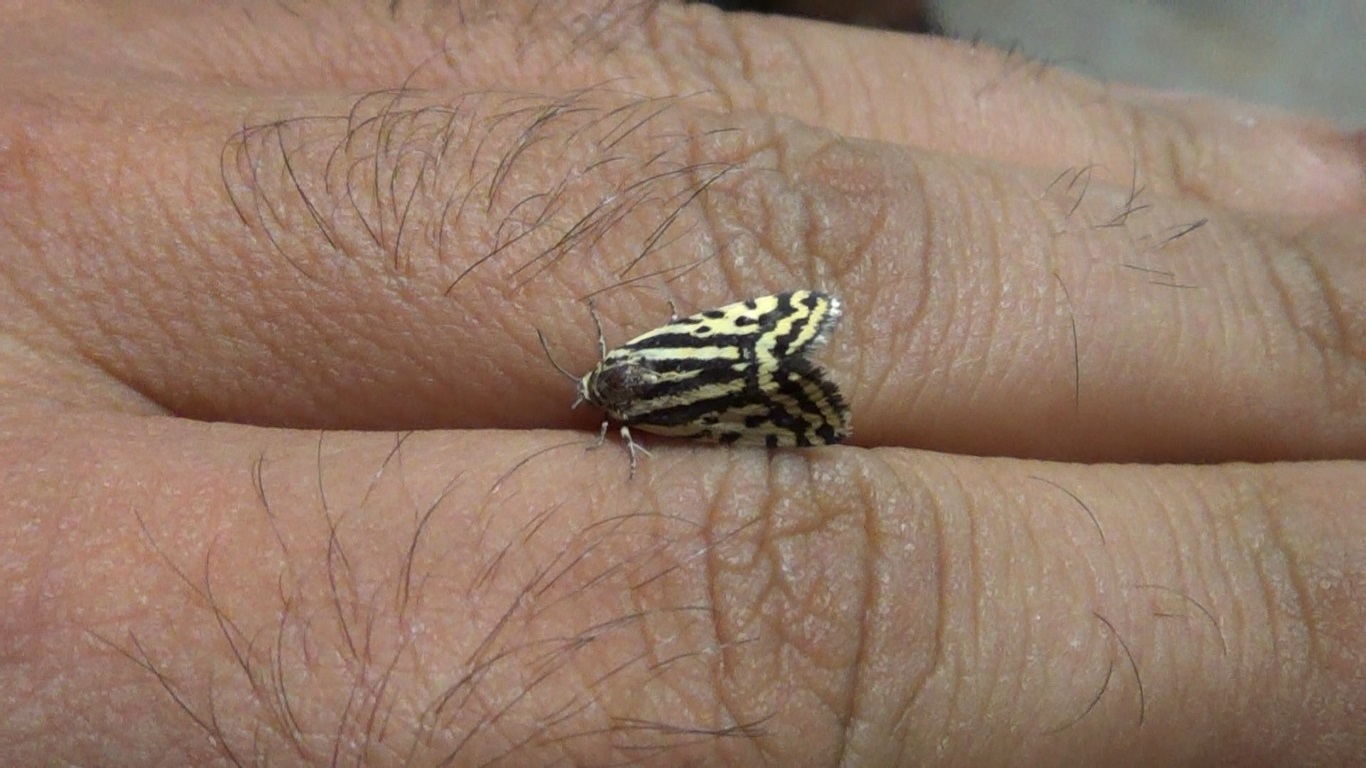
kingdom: Animalia
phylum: Arthropoda
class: Insecta
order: Lepidoptera
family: Noctuidae
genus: Acontia
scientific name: Acontia trabealis
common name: Spotted sulphur
